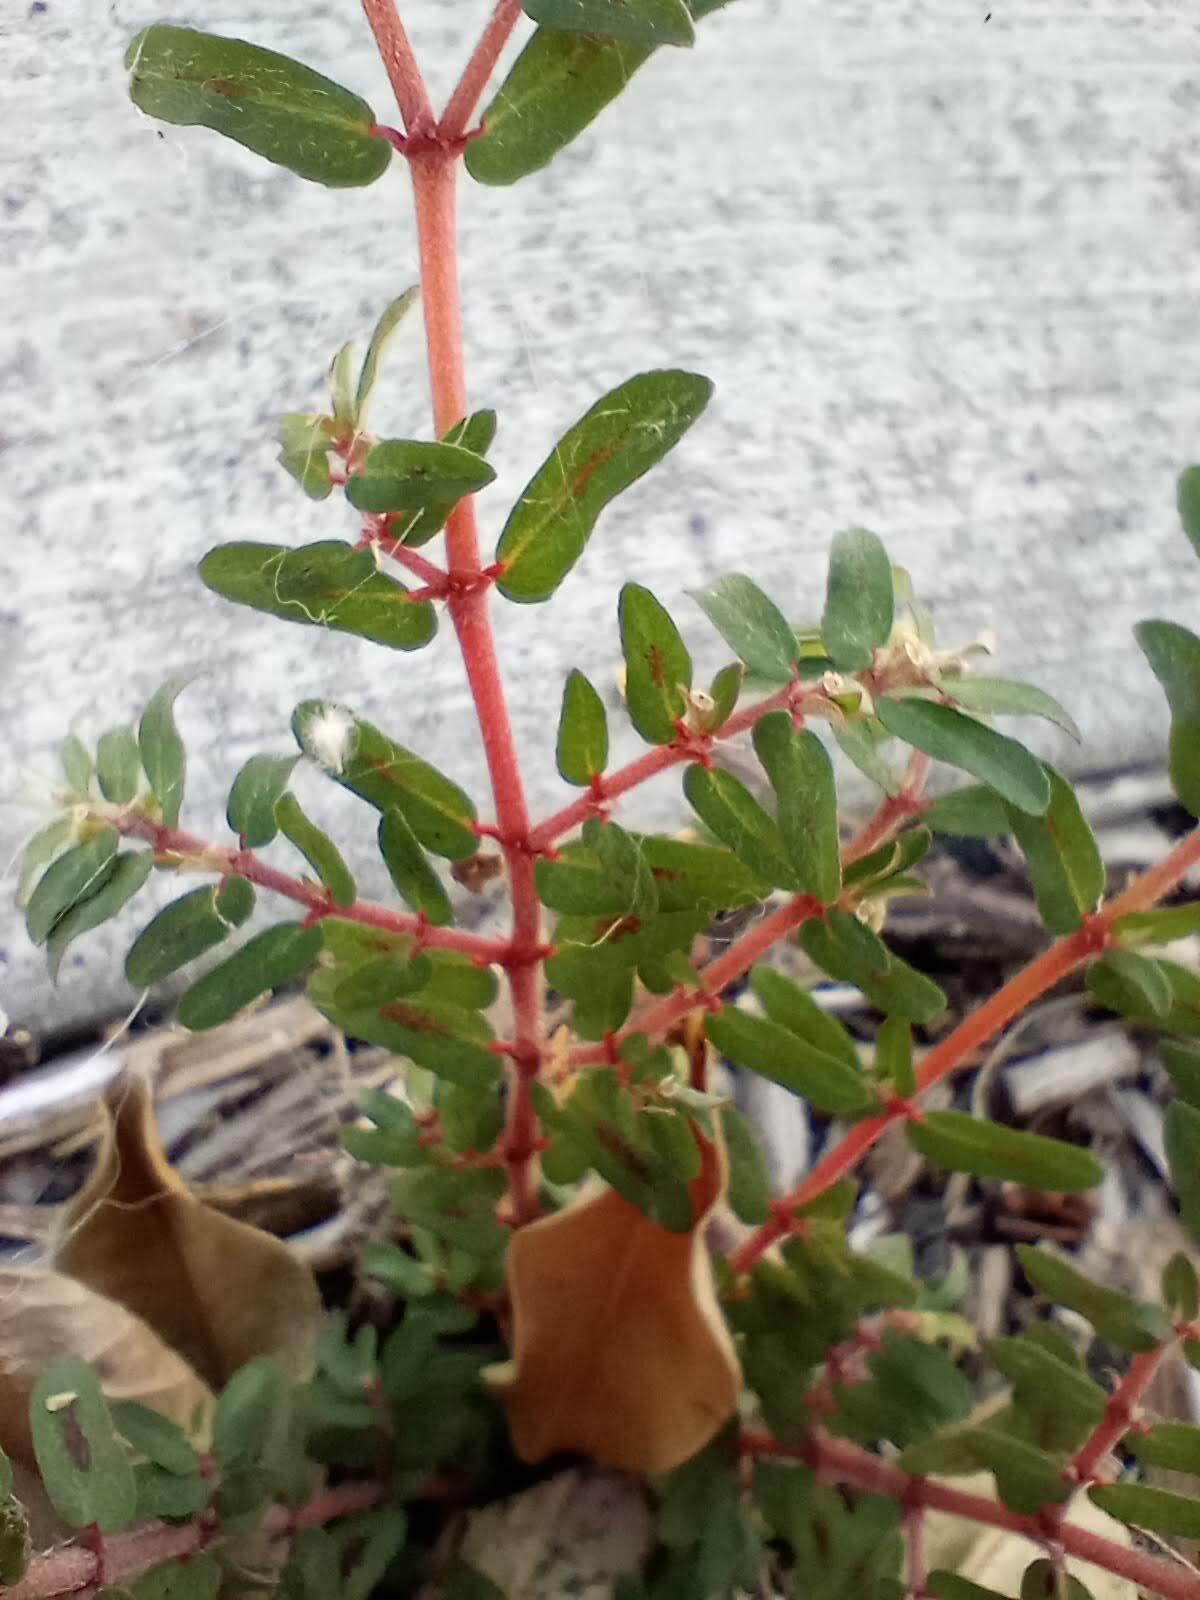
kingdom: Plantae
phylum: Tracheophyta
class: Magnoliopsida
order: Malpighiales
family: Euphorbiaceae
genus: Euphorbia
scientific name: Euphorbia maculata
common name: Spotted spurge
